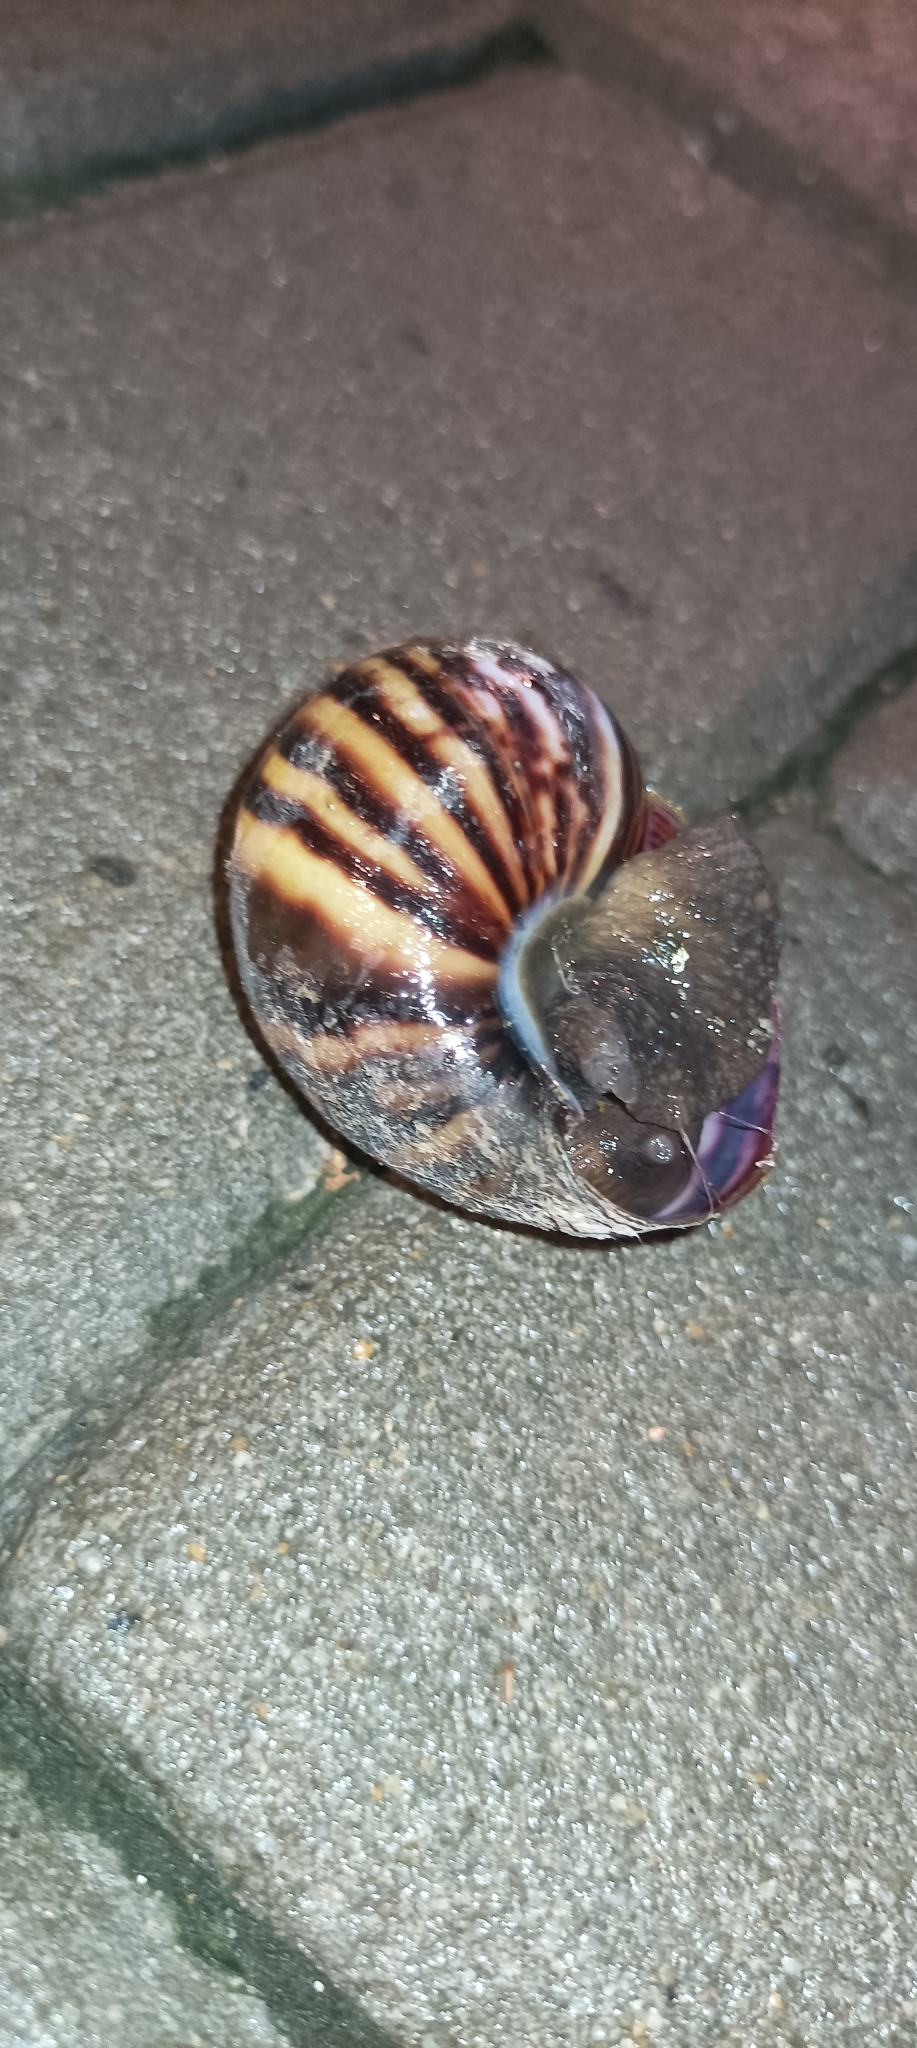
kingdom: Animalia
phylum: Mollusca
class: Gastropoda
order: Stylommatophora
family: Achatinidae
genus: Lissachatina
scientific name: Lissachatina fulica
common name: Giant african snail
